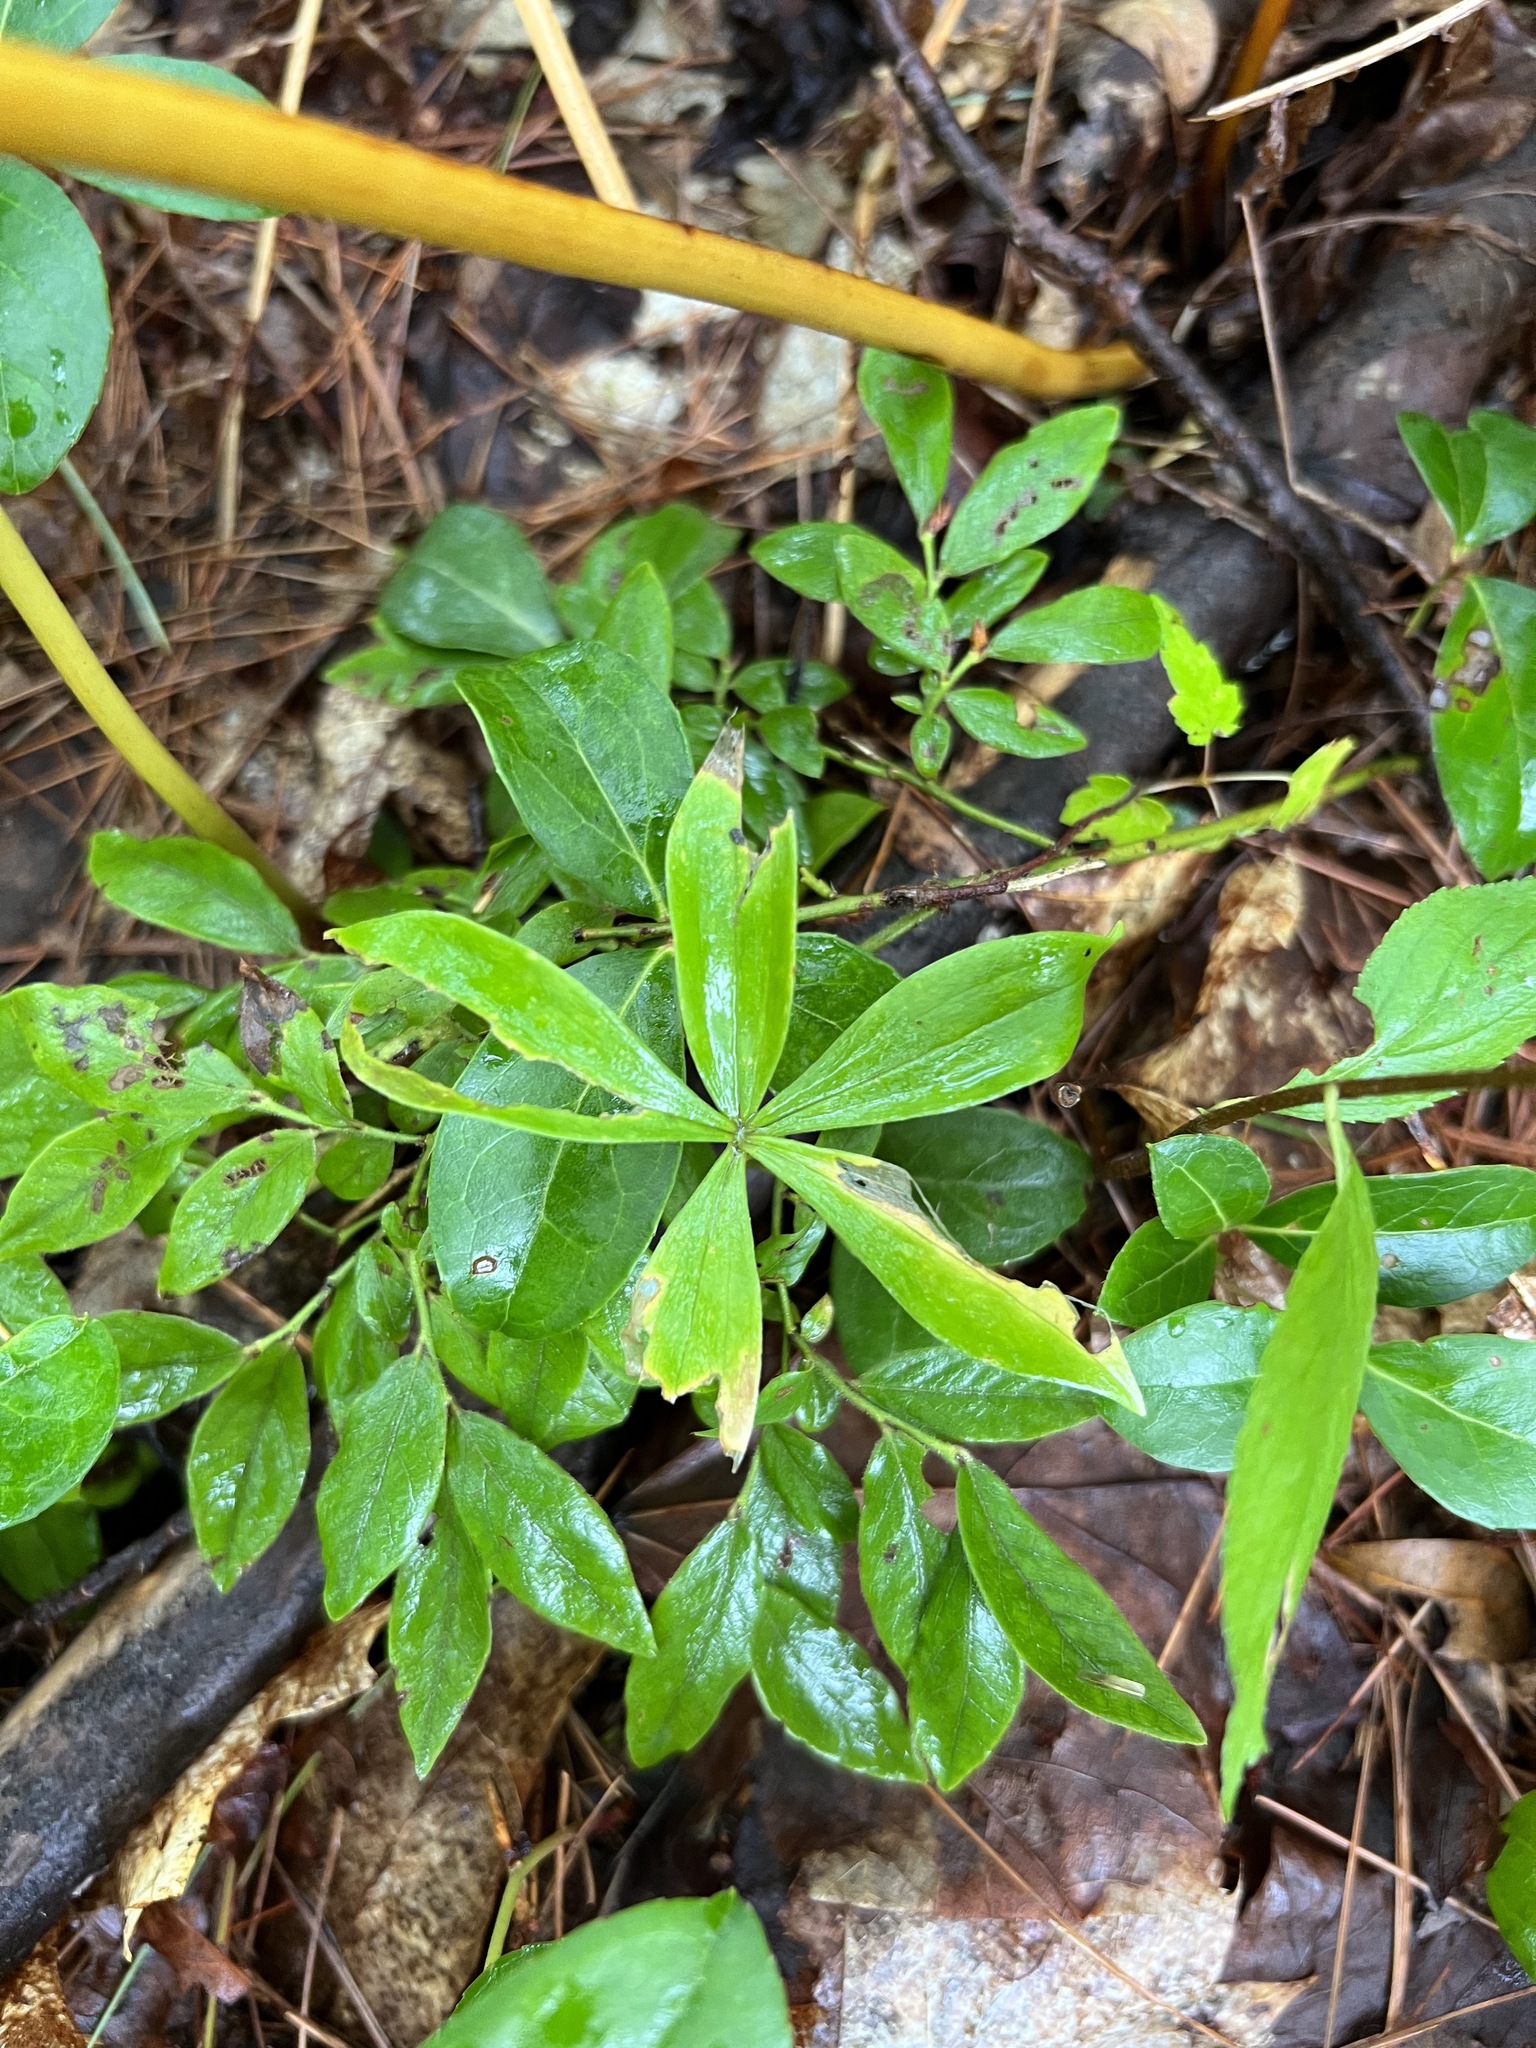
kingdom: Plantae
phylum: Tracheophyta
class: Liliopsida
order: Liliales
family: Liliaceae
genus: Medeola
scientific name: Medeola virginiana
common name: Indian cucumber-root
